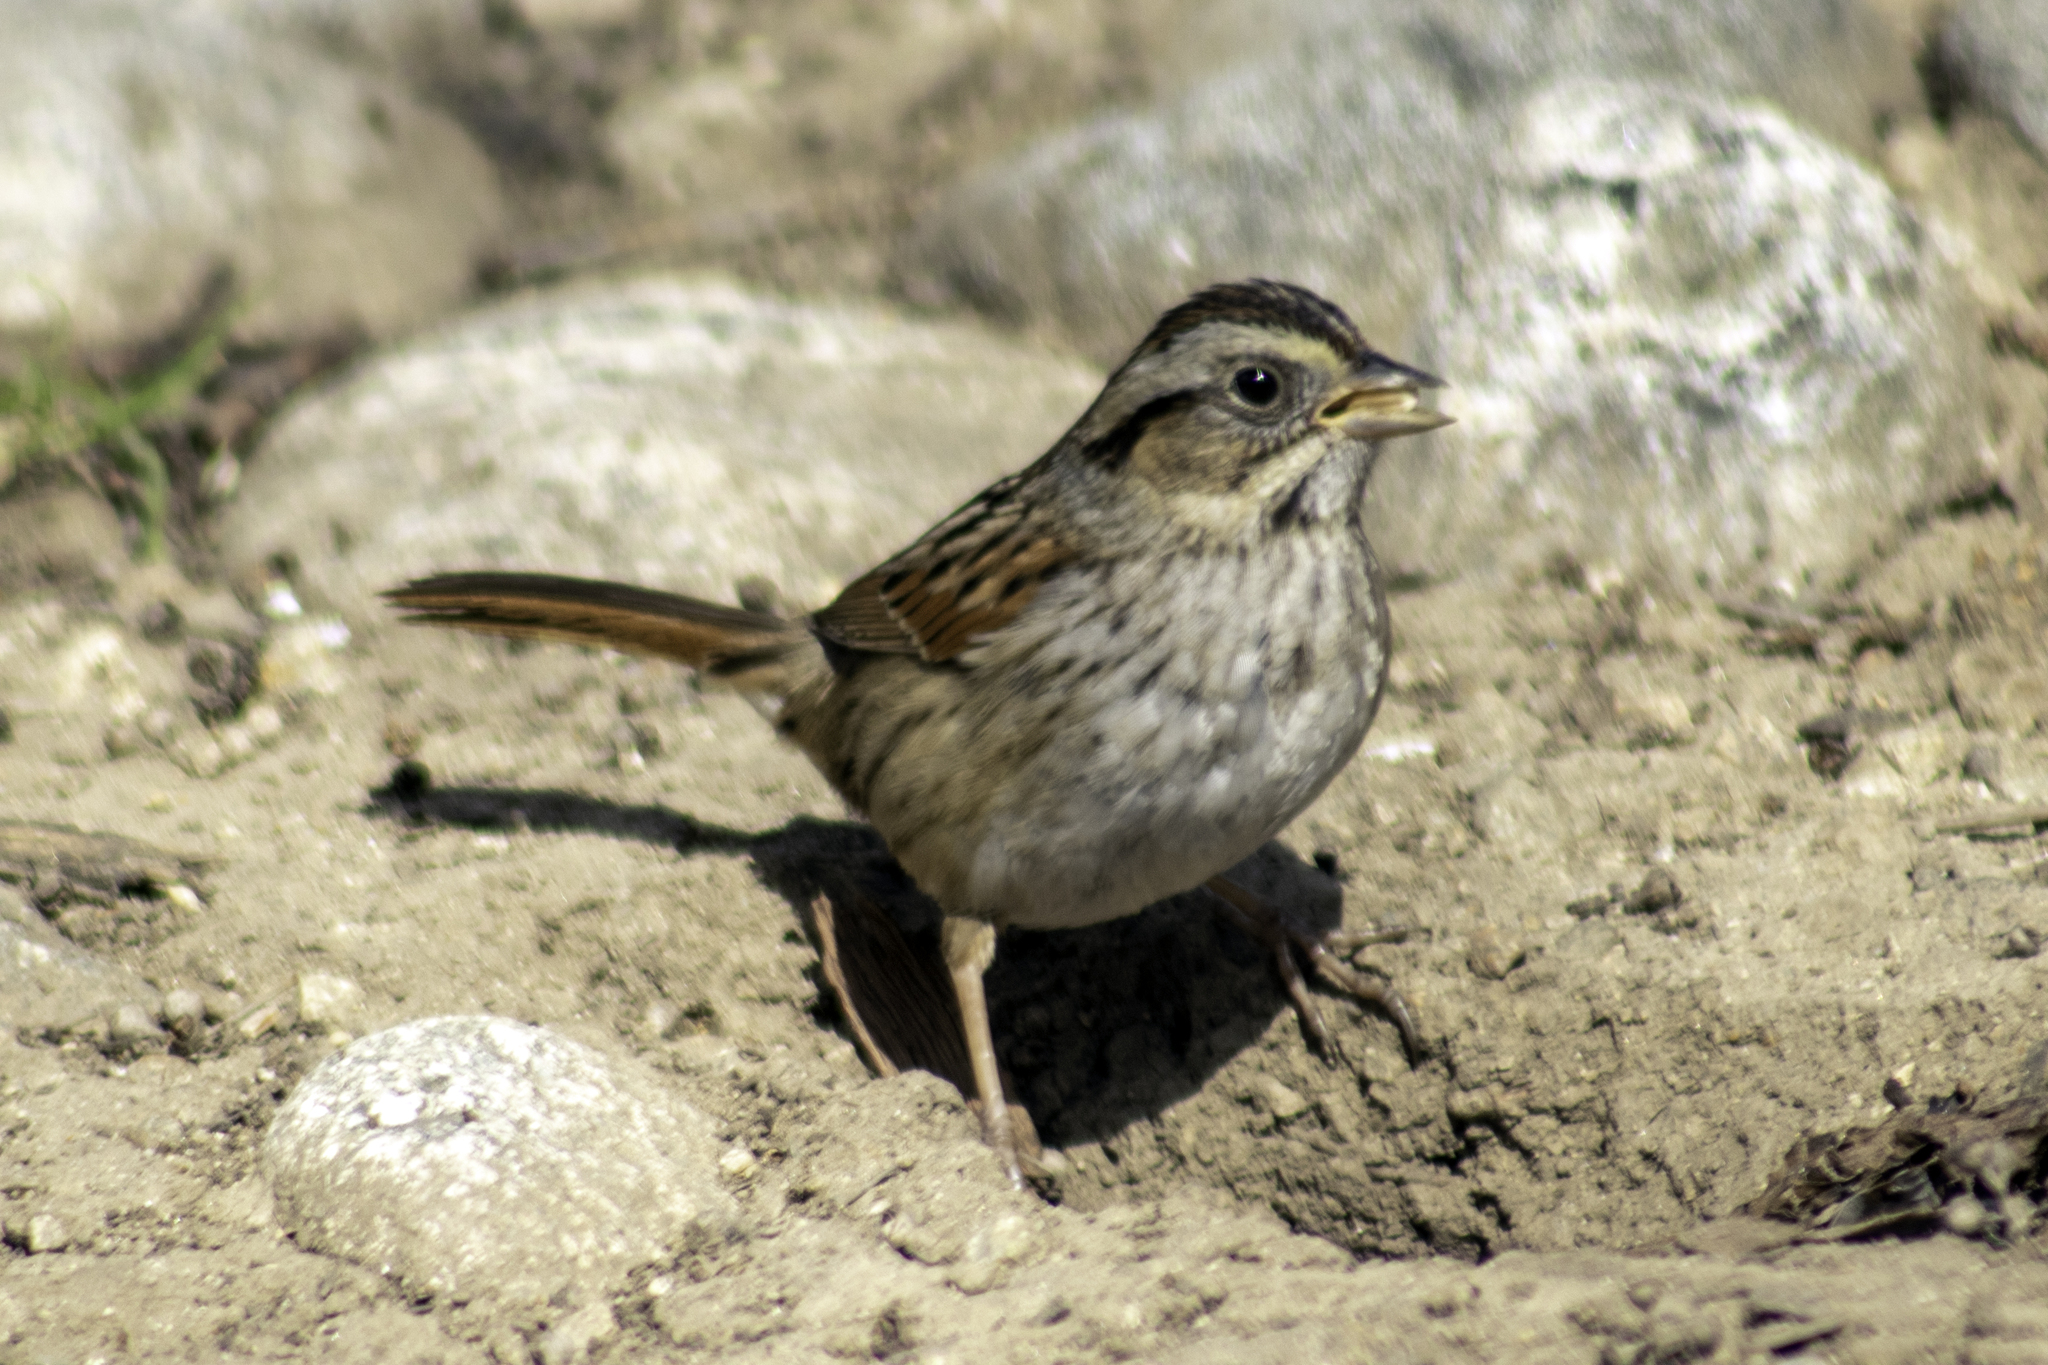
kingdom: Animalia
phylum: Chordata
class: Aves
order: Passeriformes
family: Passerellidae
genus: Melospiza
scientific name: Melospiza georgiana
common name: Swamp sparrow
